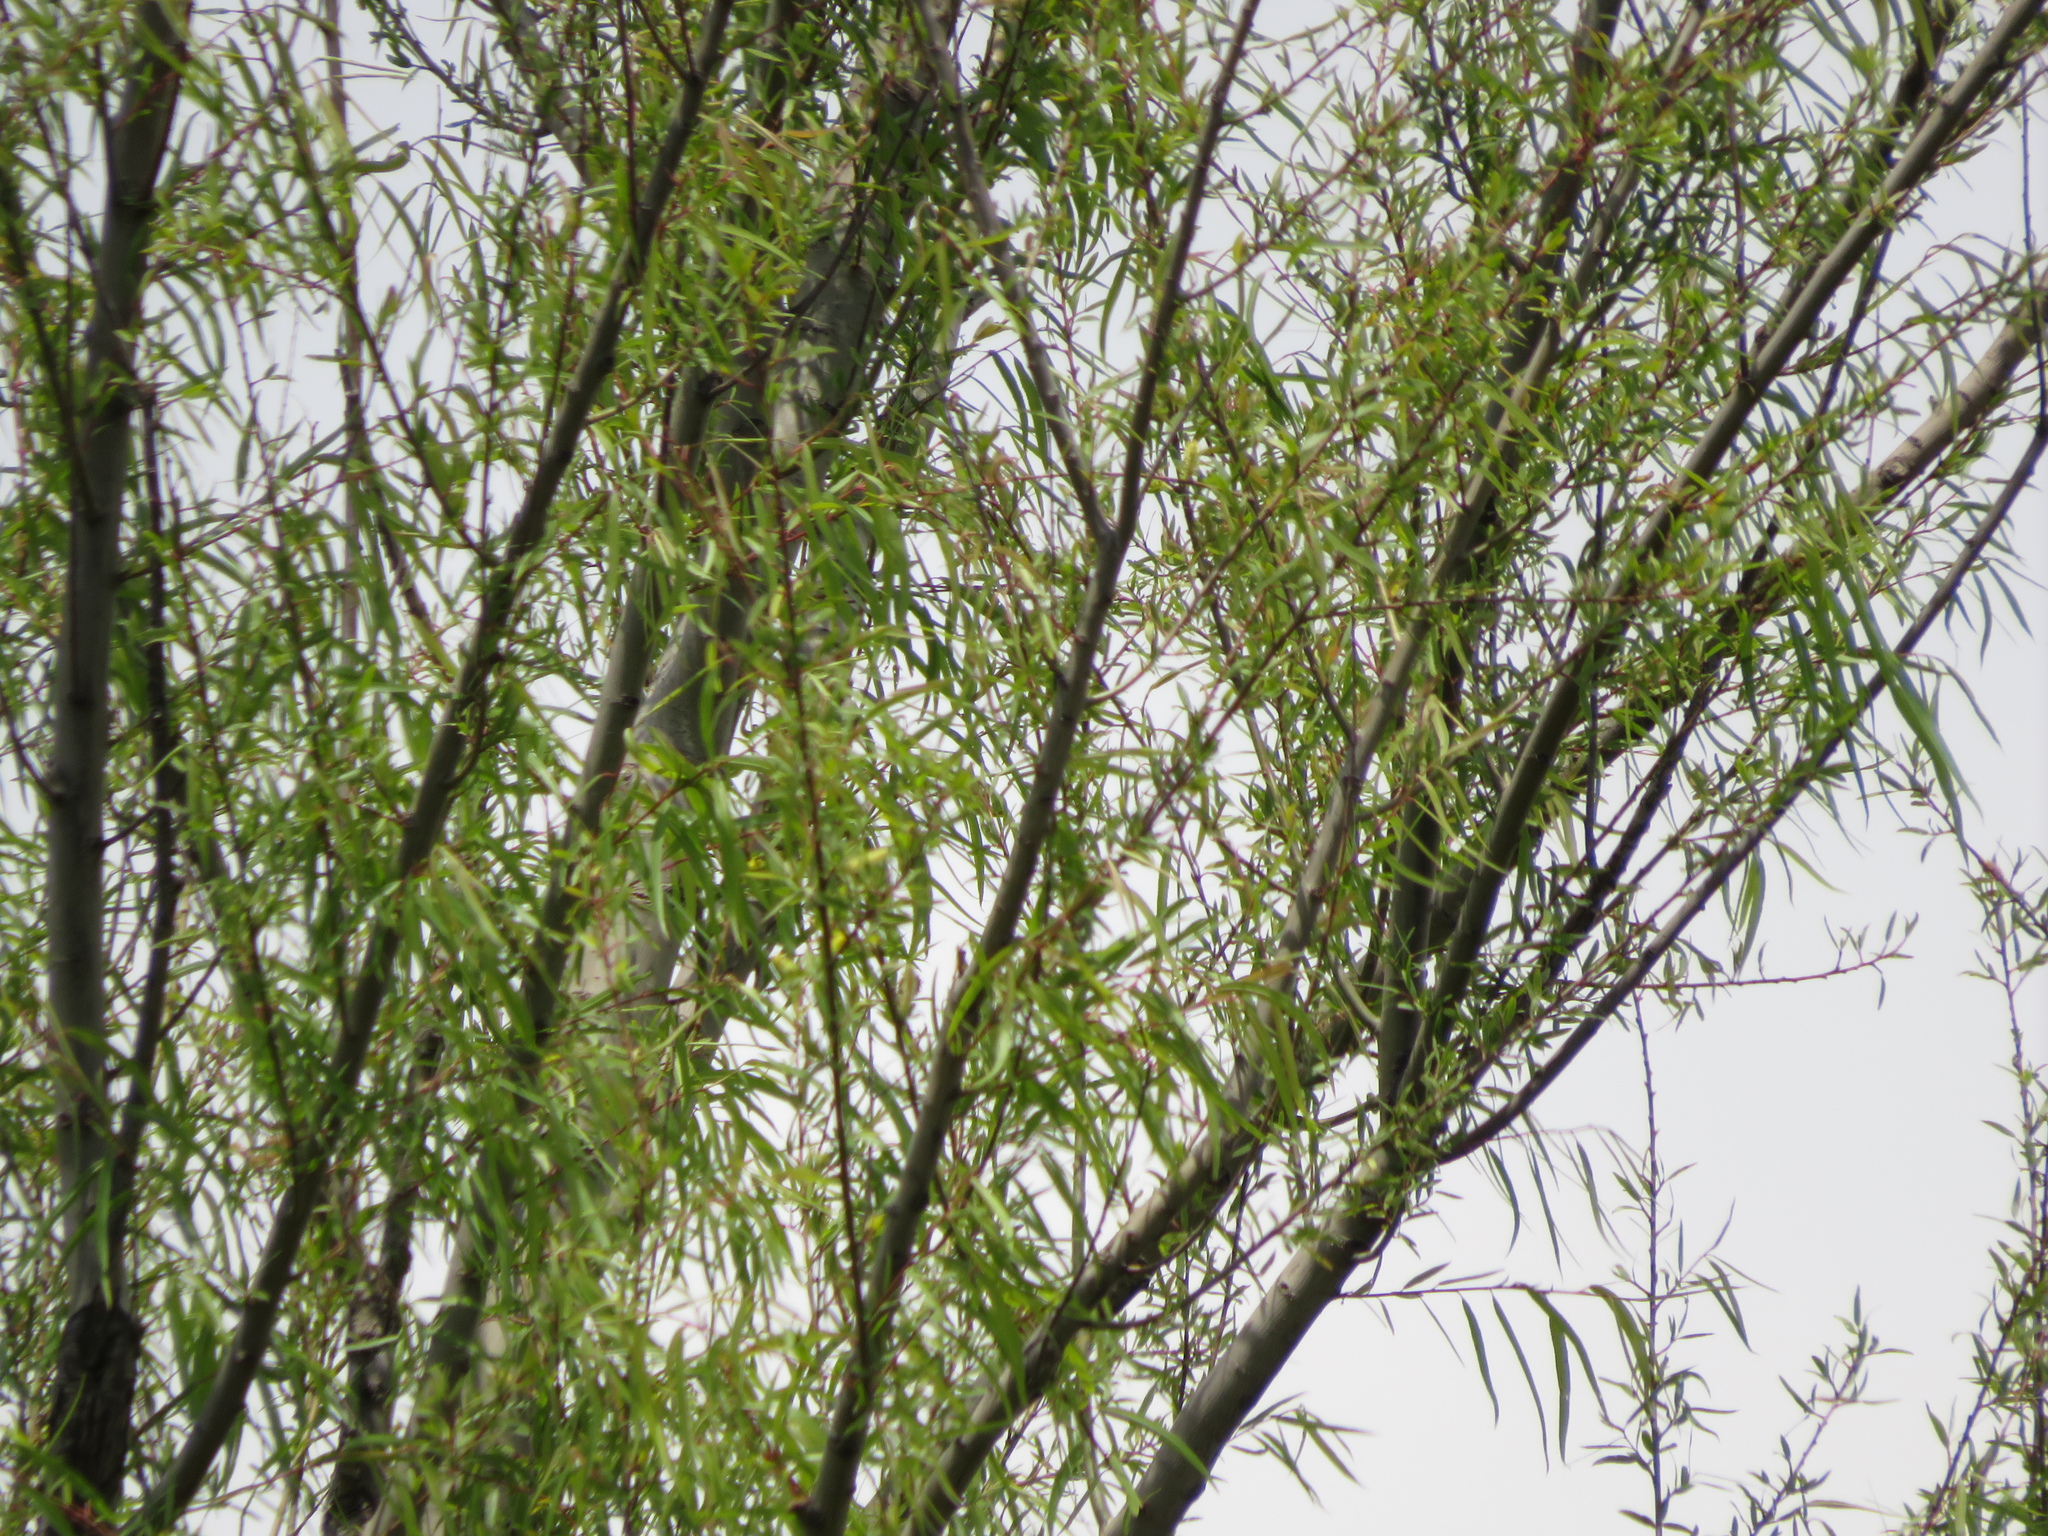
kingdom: Plantae
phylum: Tracheophyta
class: Magnoliopsida
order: Malpighiales
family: Salicaceae
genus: Salix
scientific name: Salix humboldtiana
